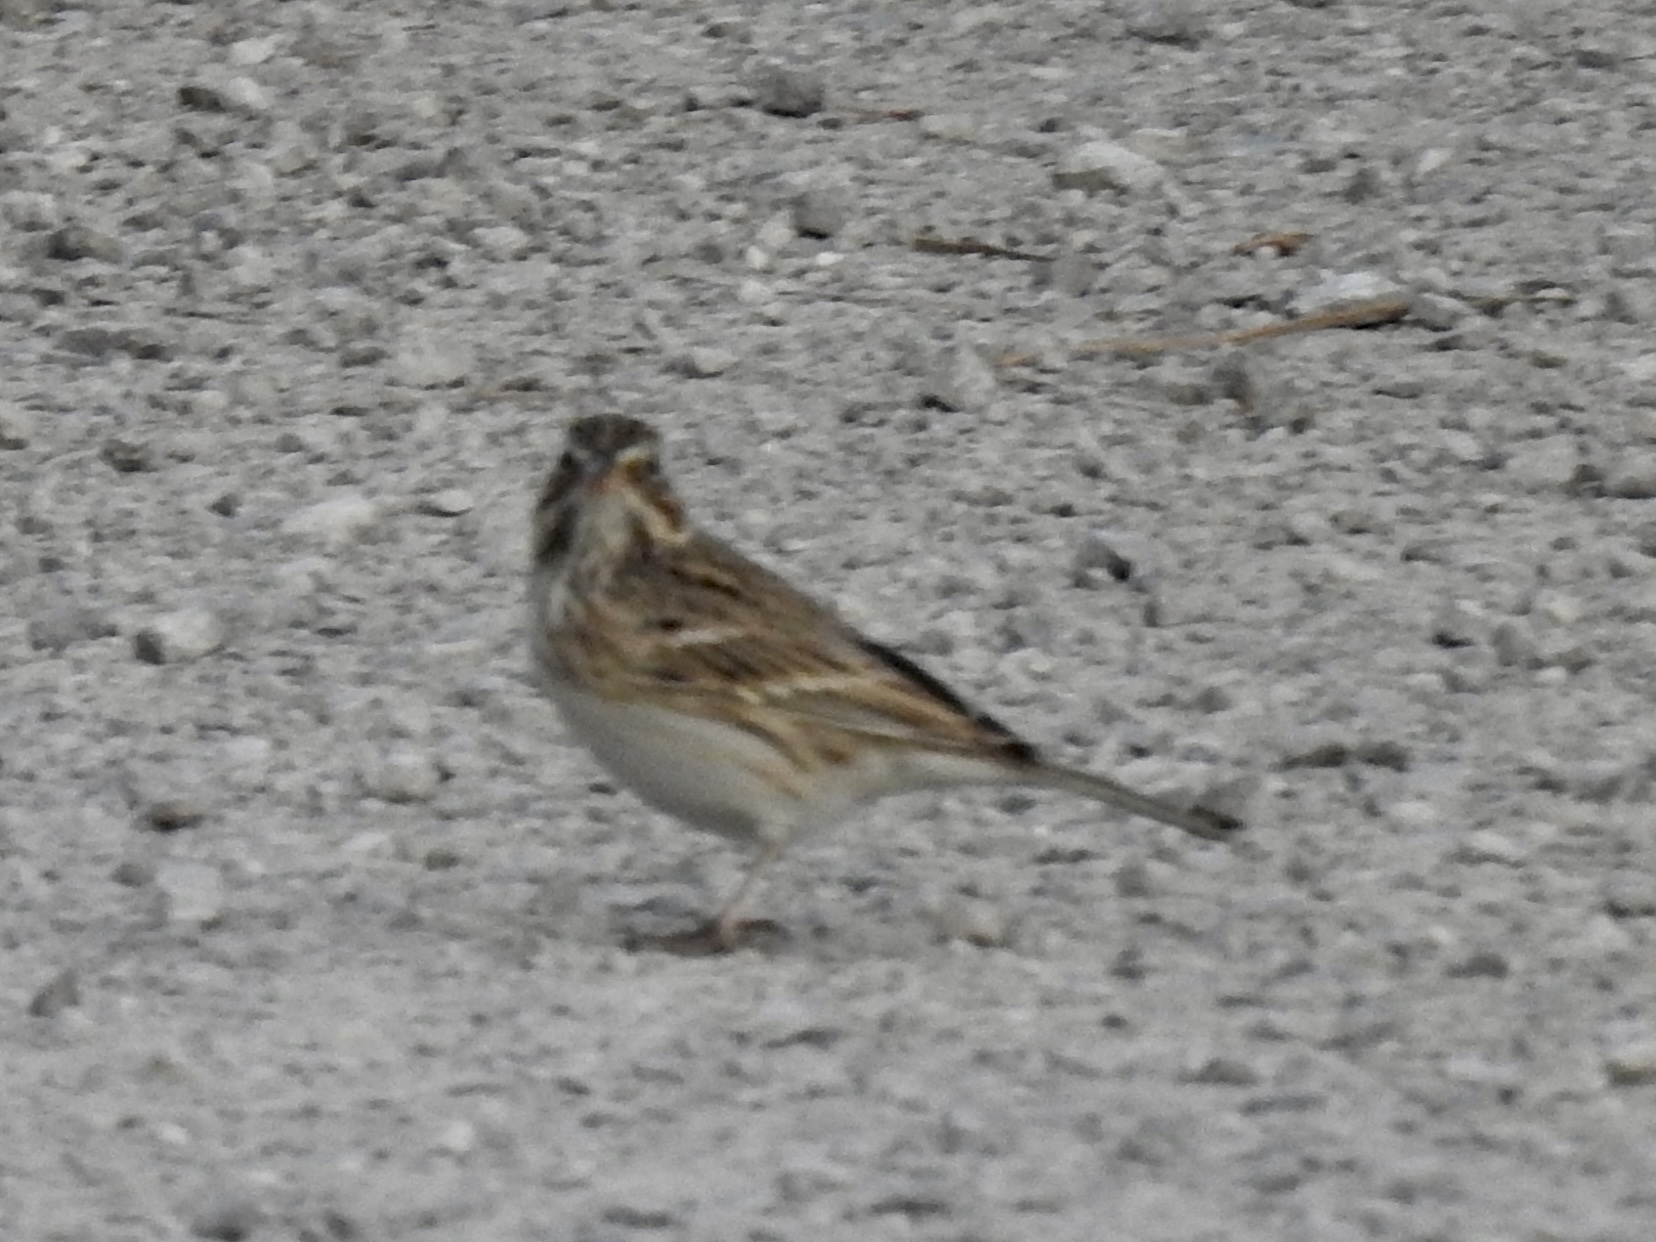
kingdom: Animalia
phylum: Chordata
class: Aves
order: Passeriformes
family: Passerellidae
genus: Passerculus
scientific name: Passerculus sandwichensis
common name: Savannah sparrow
